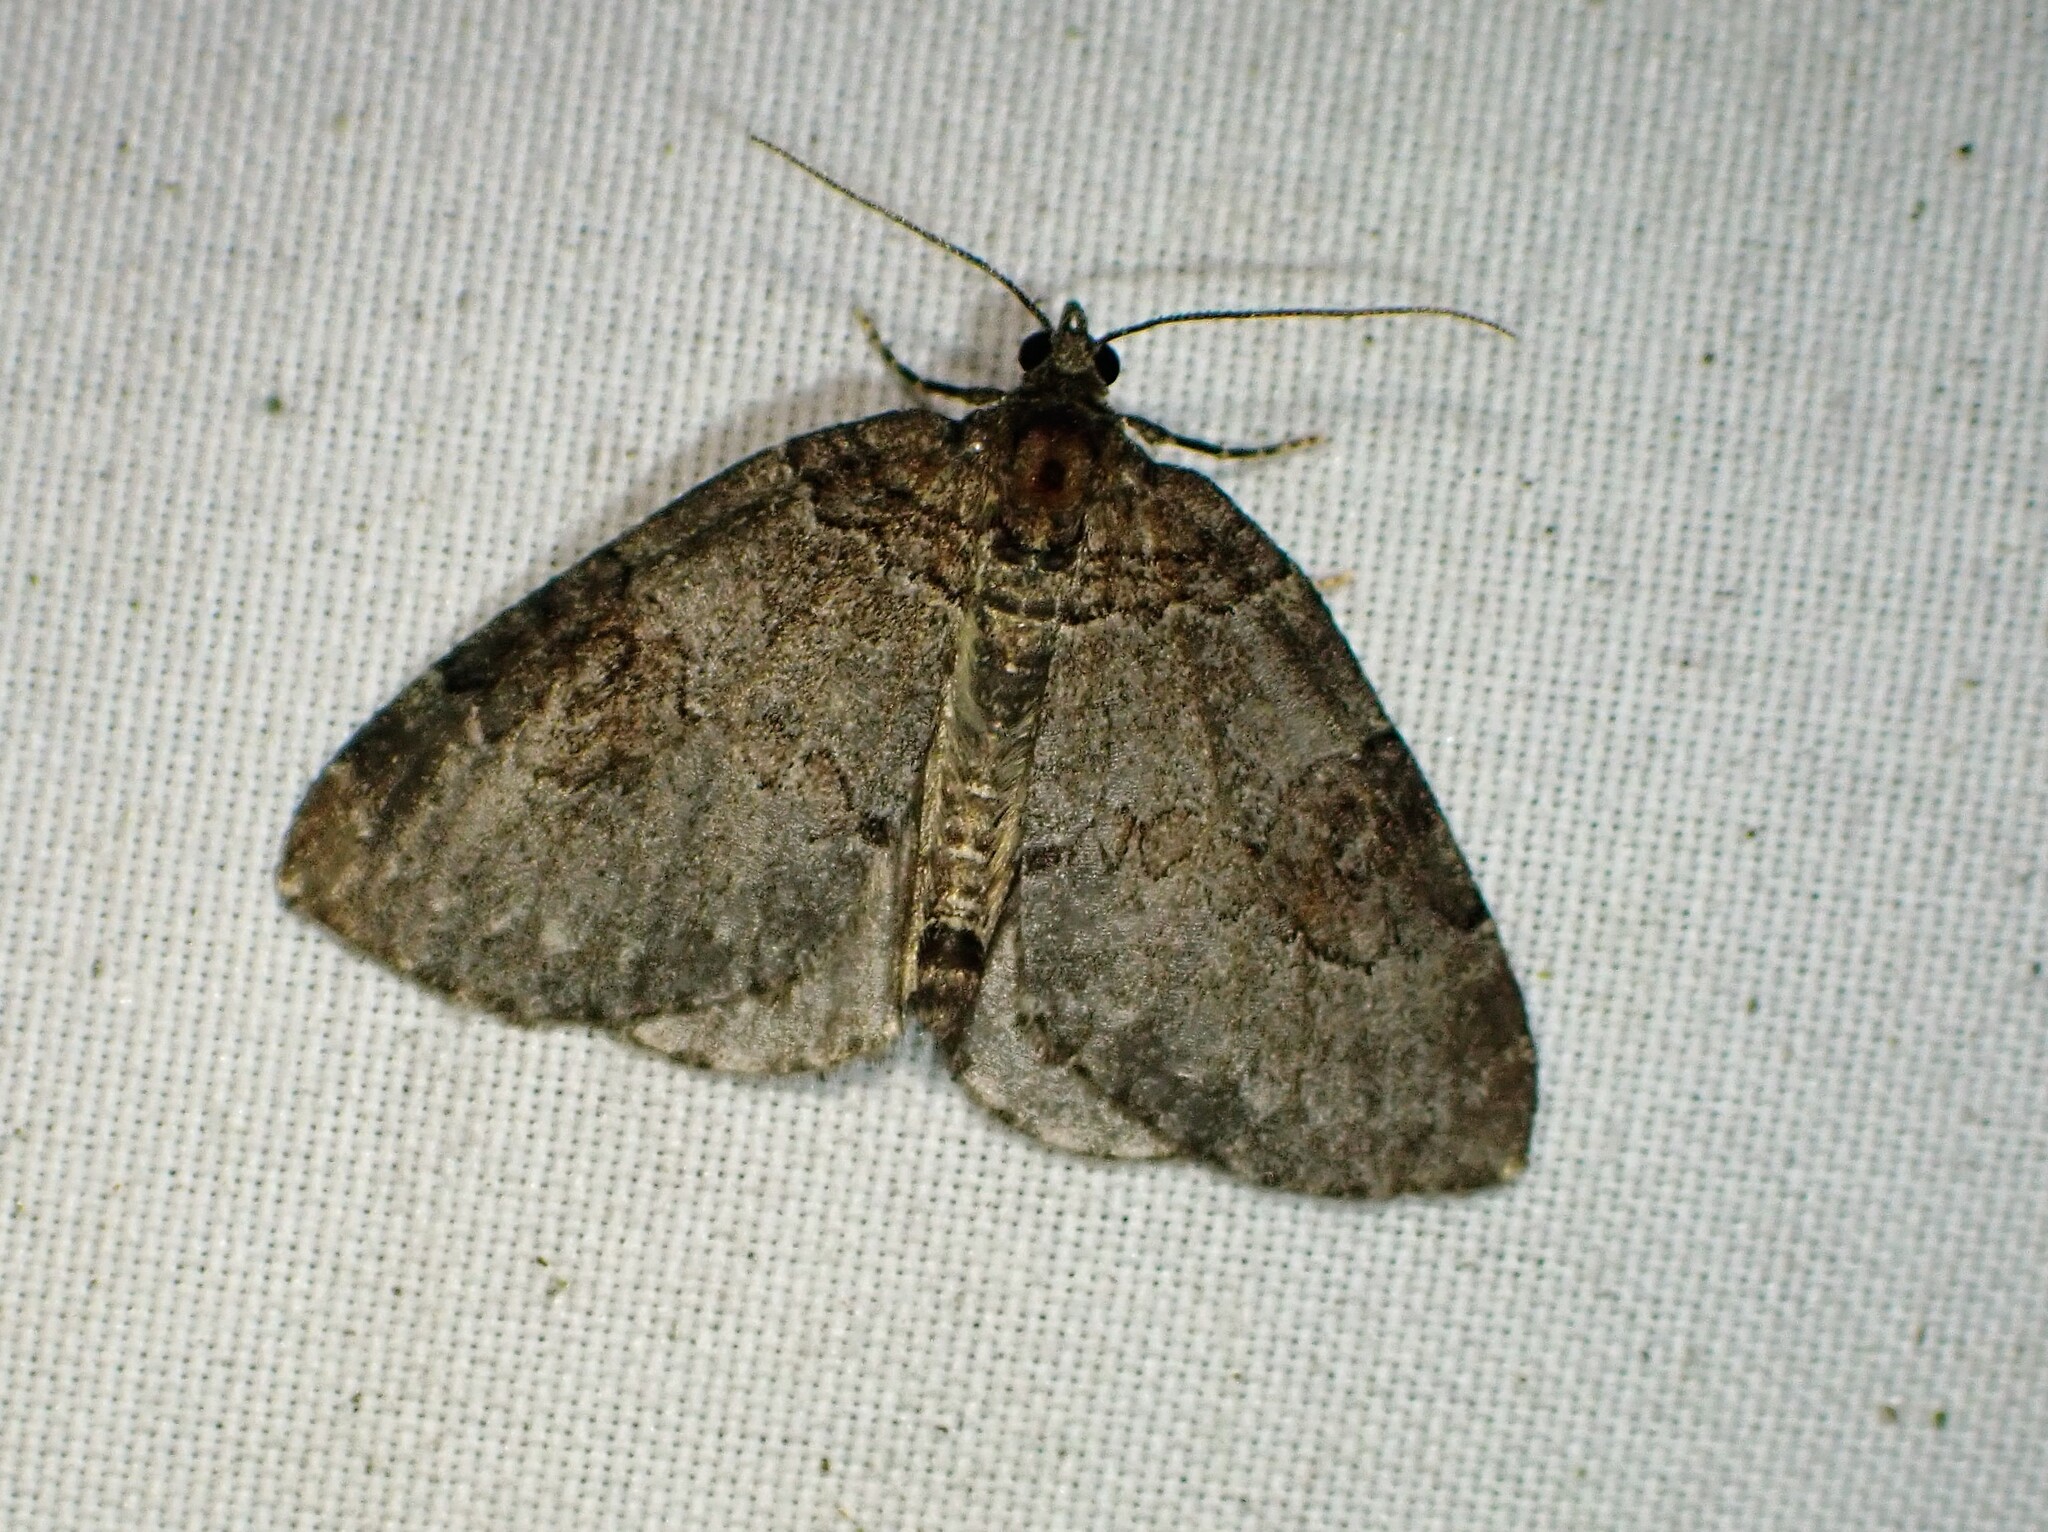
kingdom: Animalia
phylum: Arthropoda
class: Insecta
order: Lepidoptera
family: Geometridae
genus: Plemyria
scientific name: Plemyria georgii
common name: George's carpet moth
